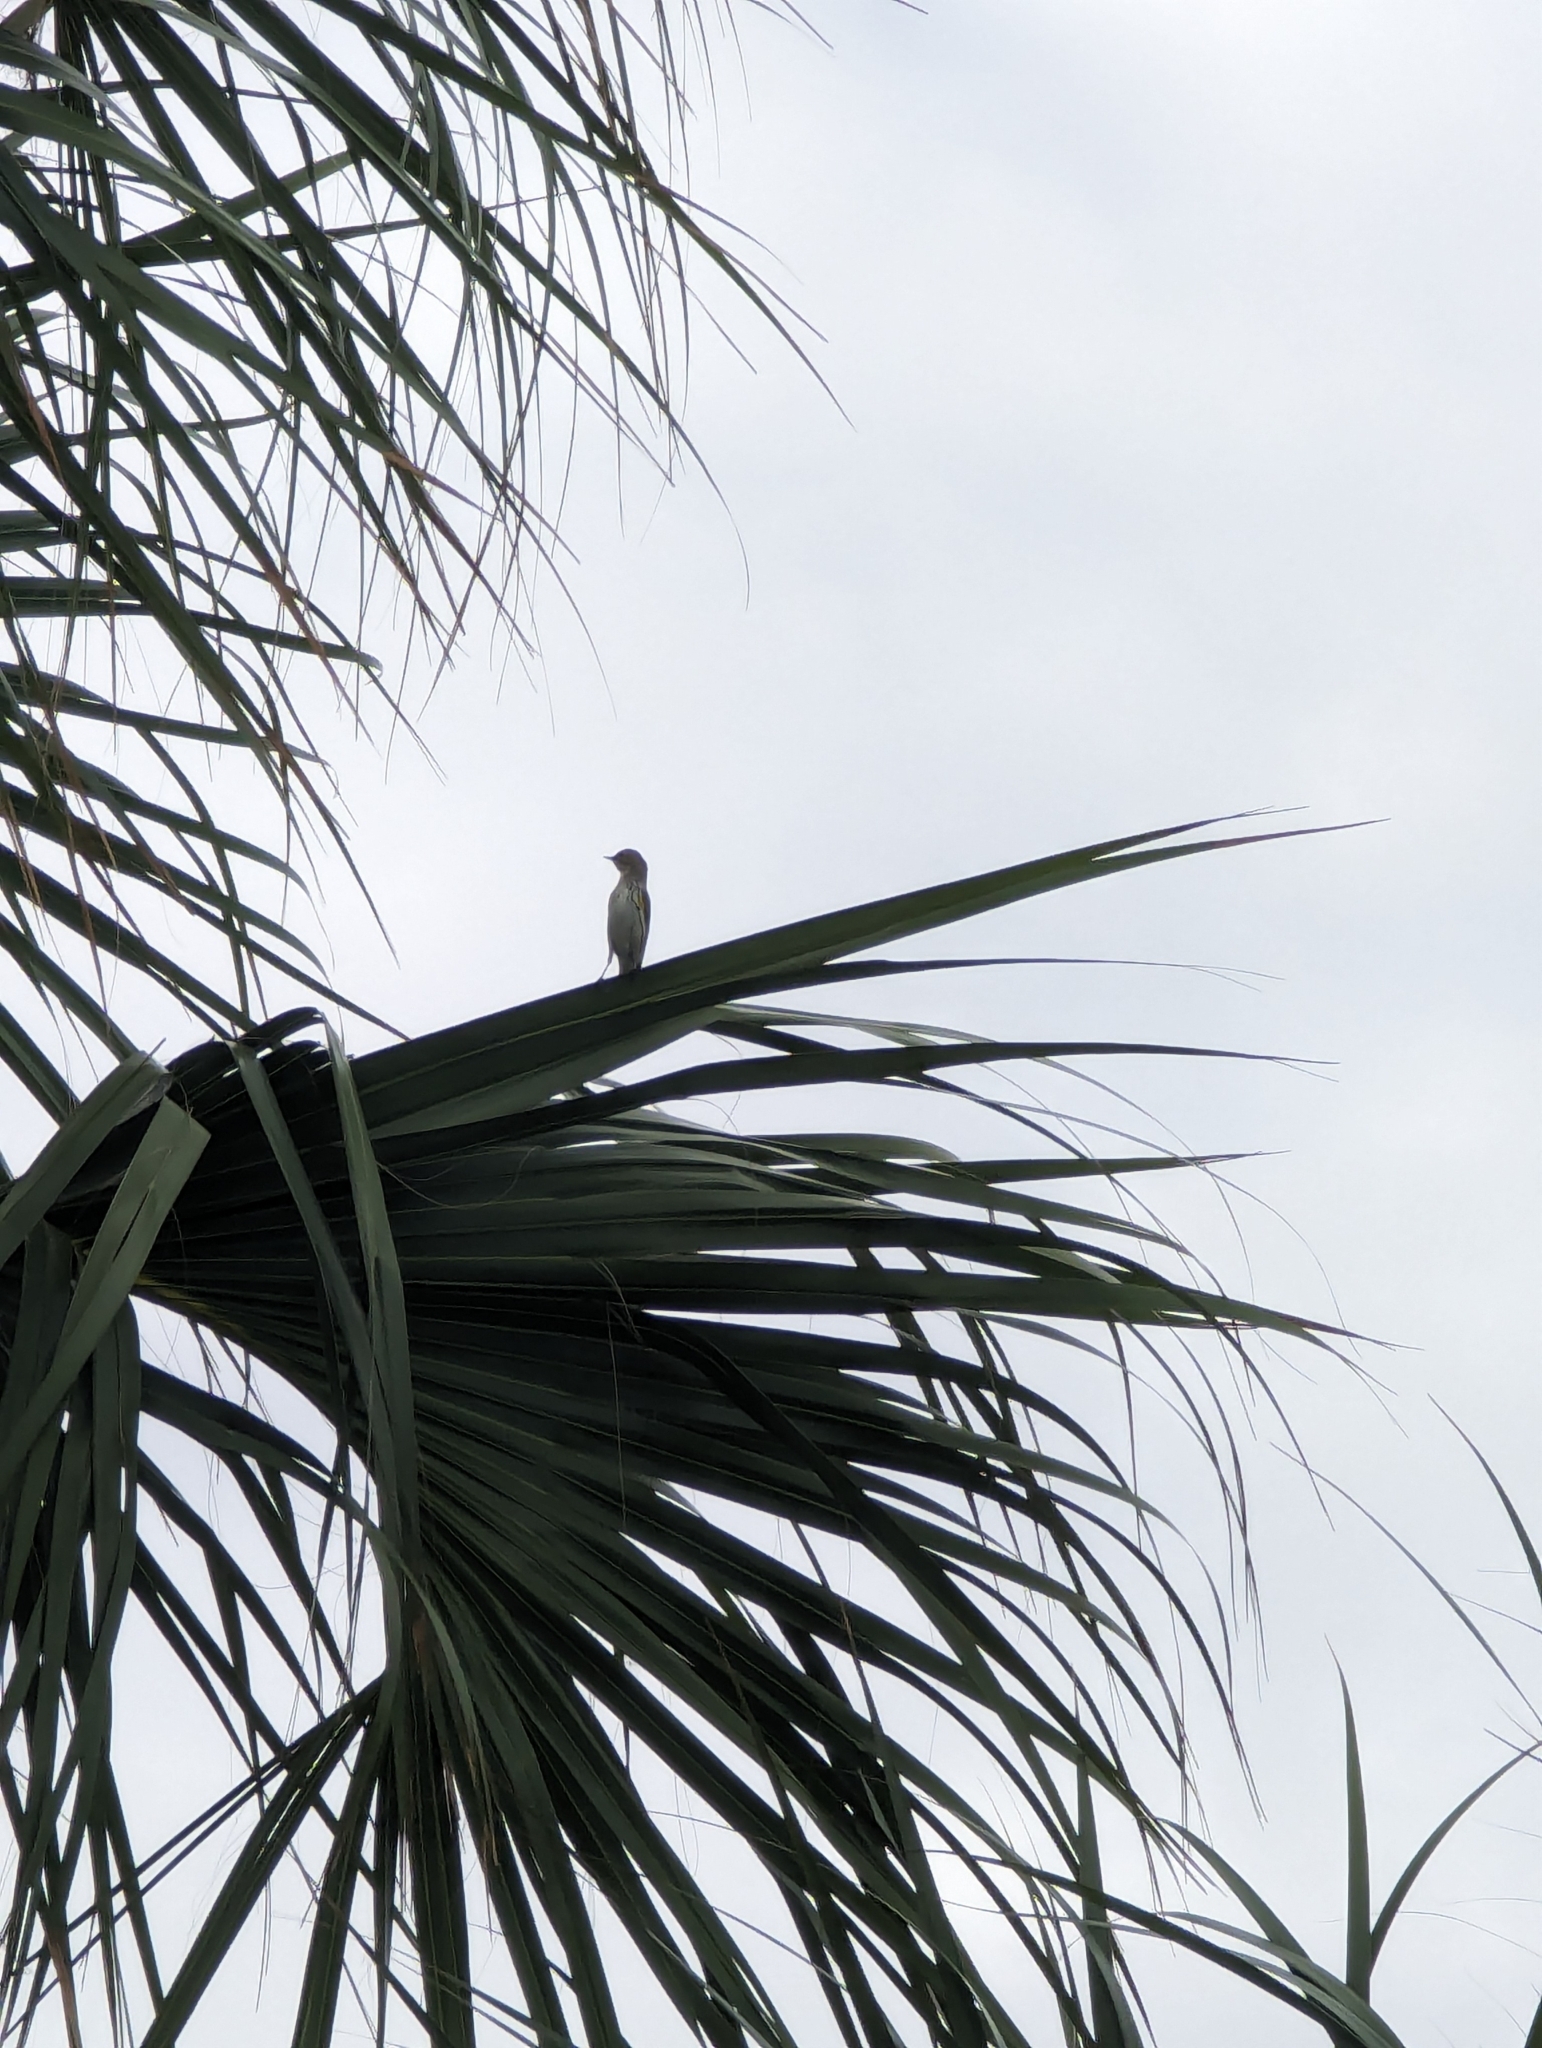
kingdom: Animalia
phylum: Chordata
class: Aves
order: Passeriformes
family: Parulidae
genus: Setophaga
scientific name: Setophaga coronata
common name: Myrtle warbler
